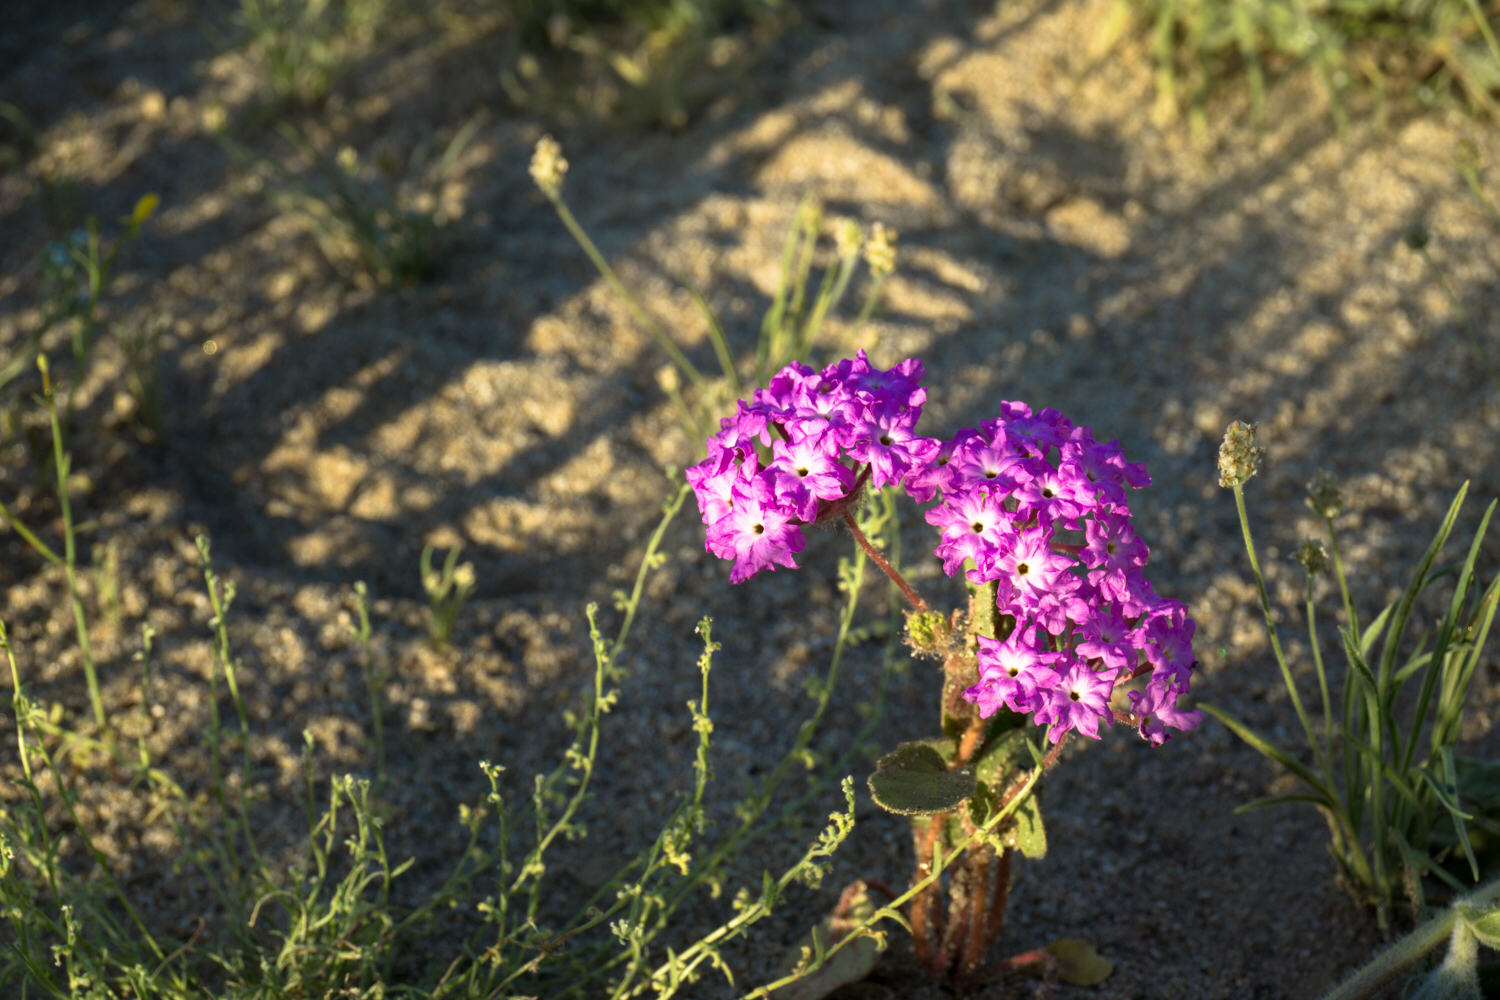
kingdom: Plantae
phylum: Tracheophyta
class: Magnoliopsida
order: Caryophyllales
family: Nyctaginaceae
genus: Abronia
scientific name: Abronia villosa
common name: Desert sand-verbena
